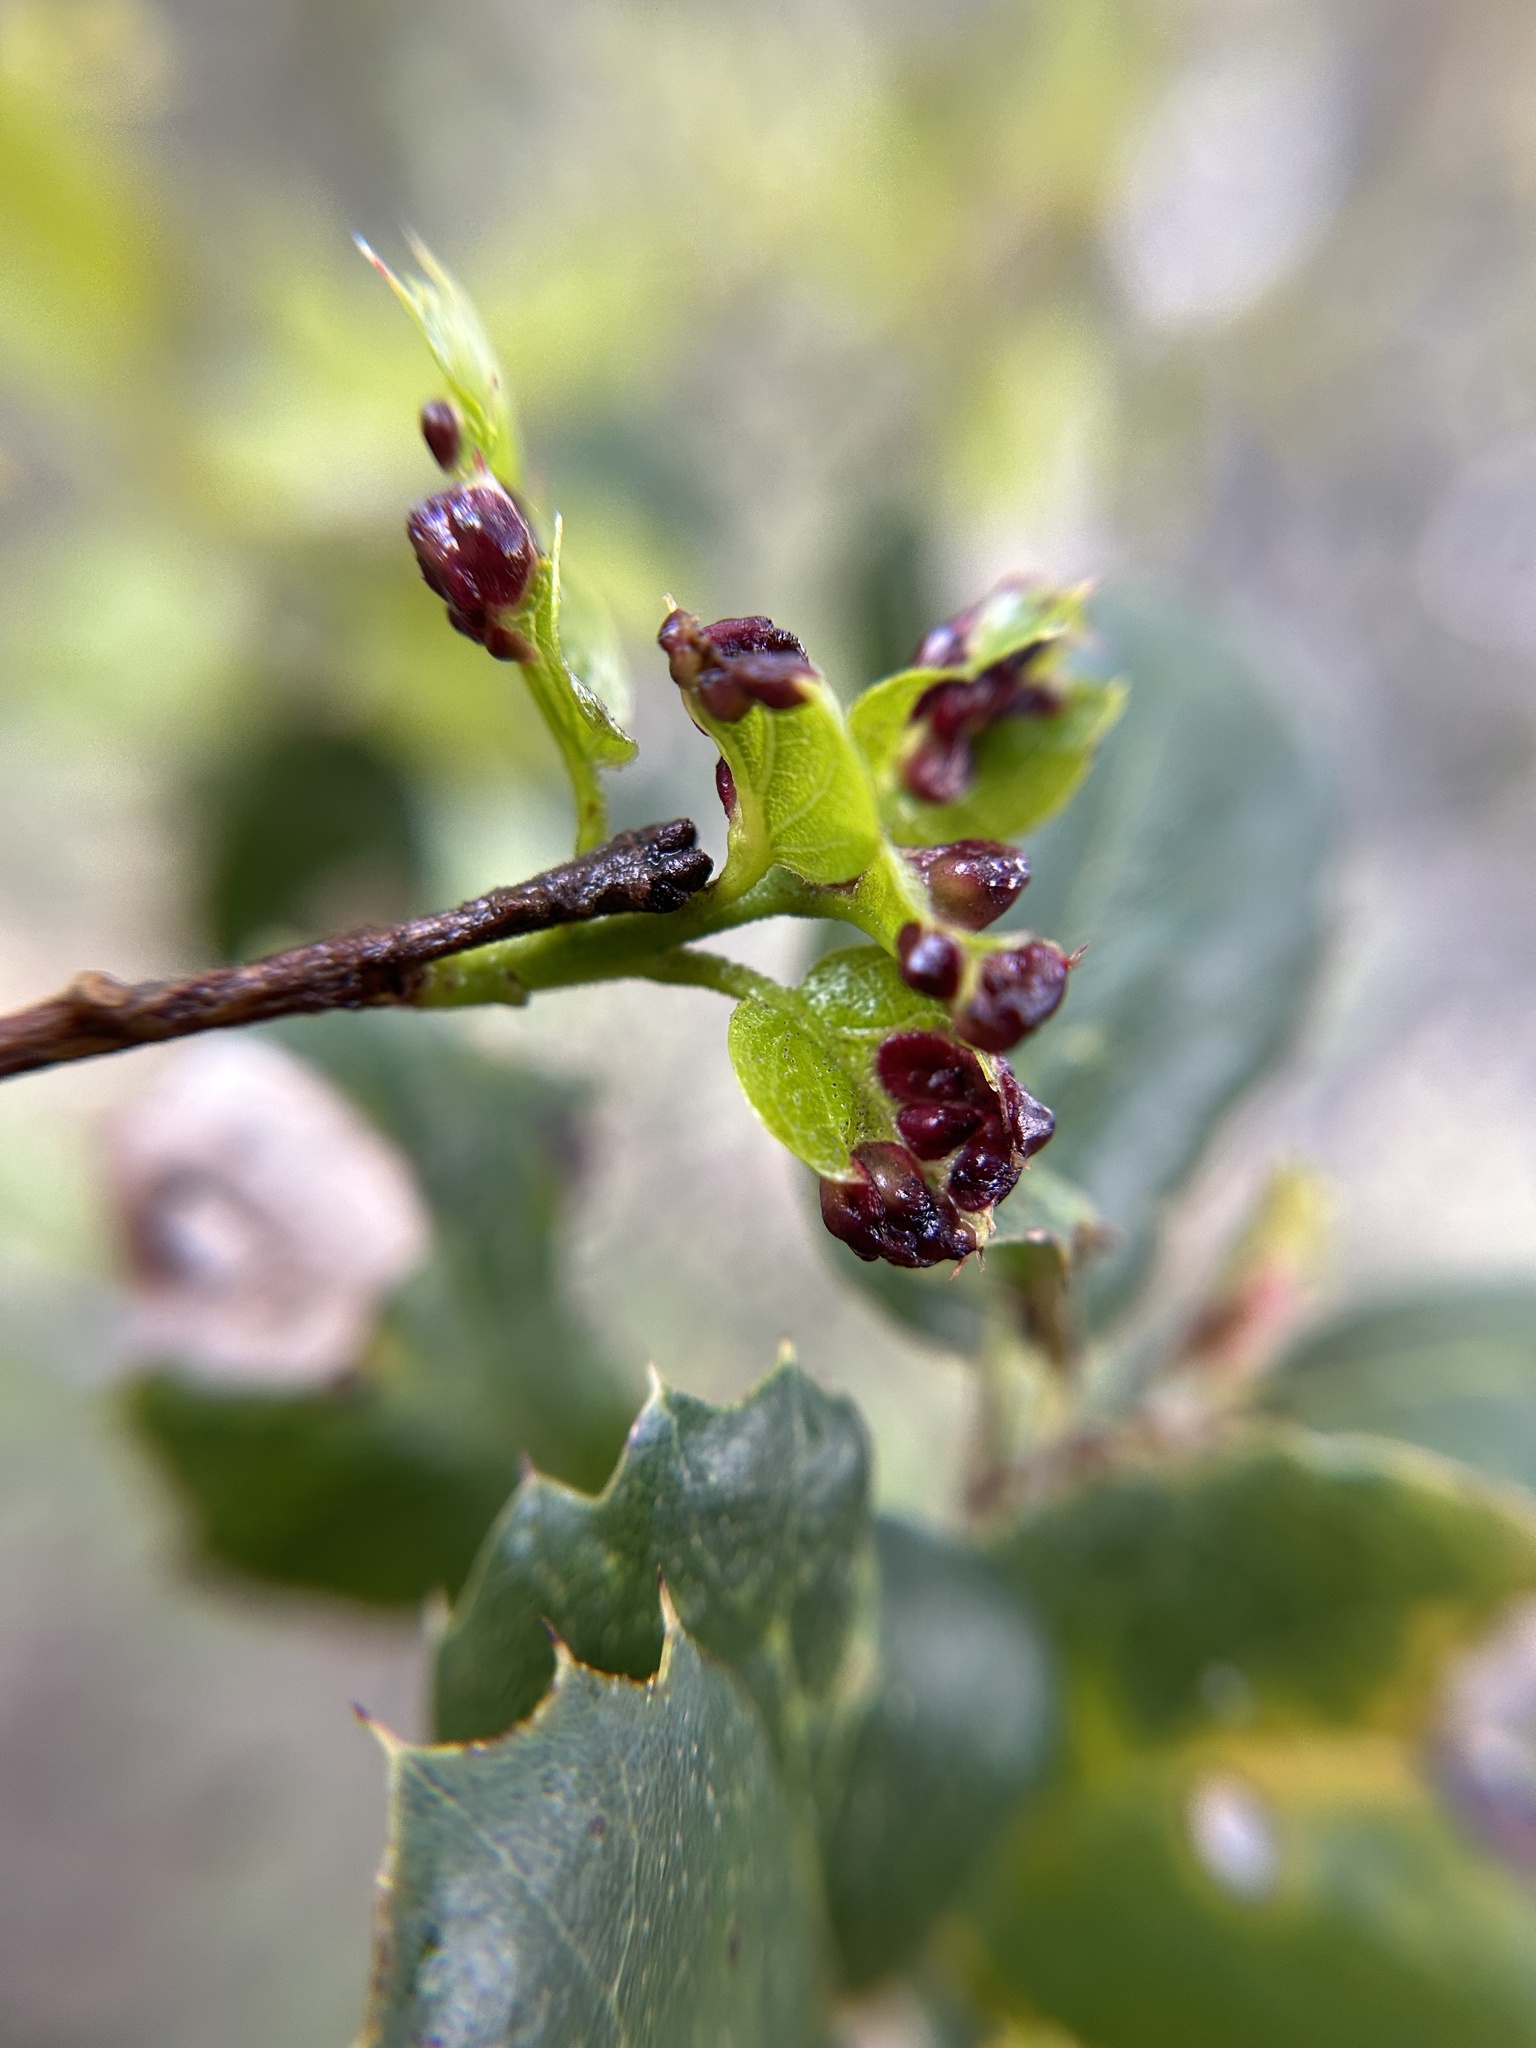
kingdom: Animalia
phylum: Arthropoda
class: Insecta
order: Hymenoptera
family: Cynipidae
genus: Dryocosmus
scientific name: Dryocosmus
